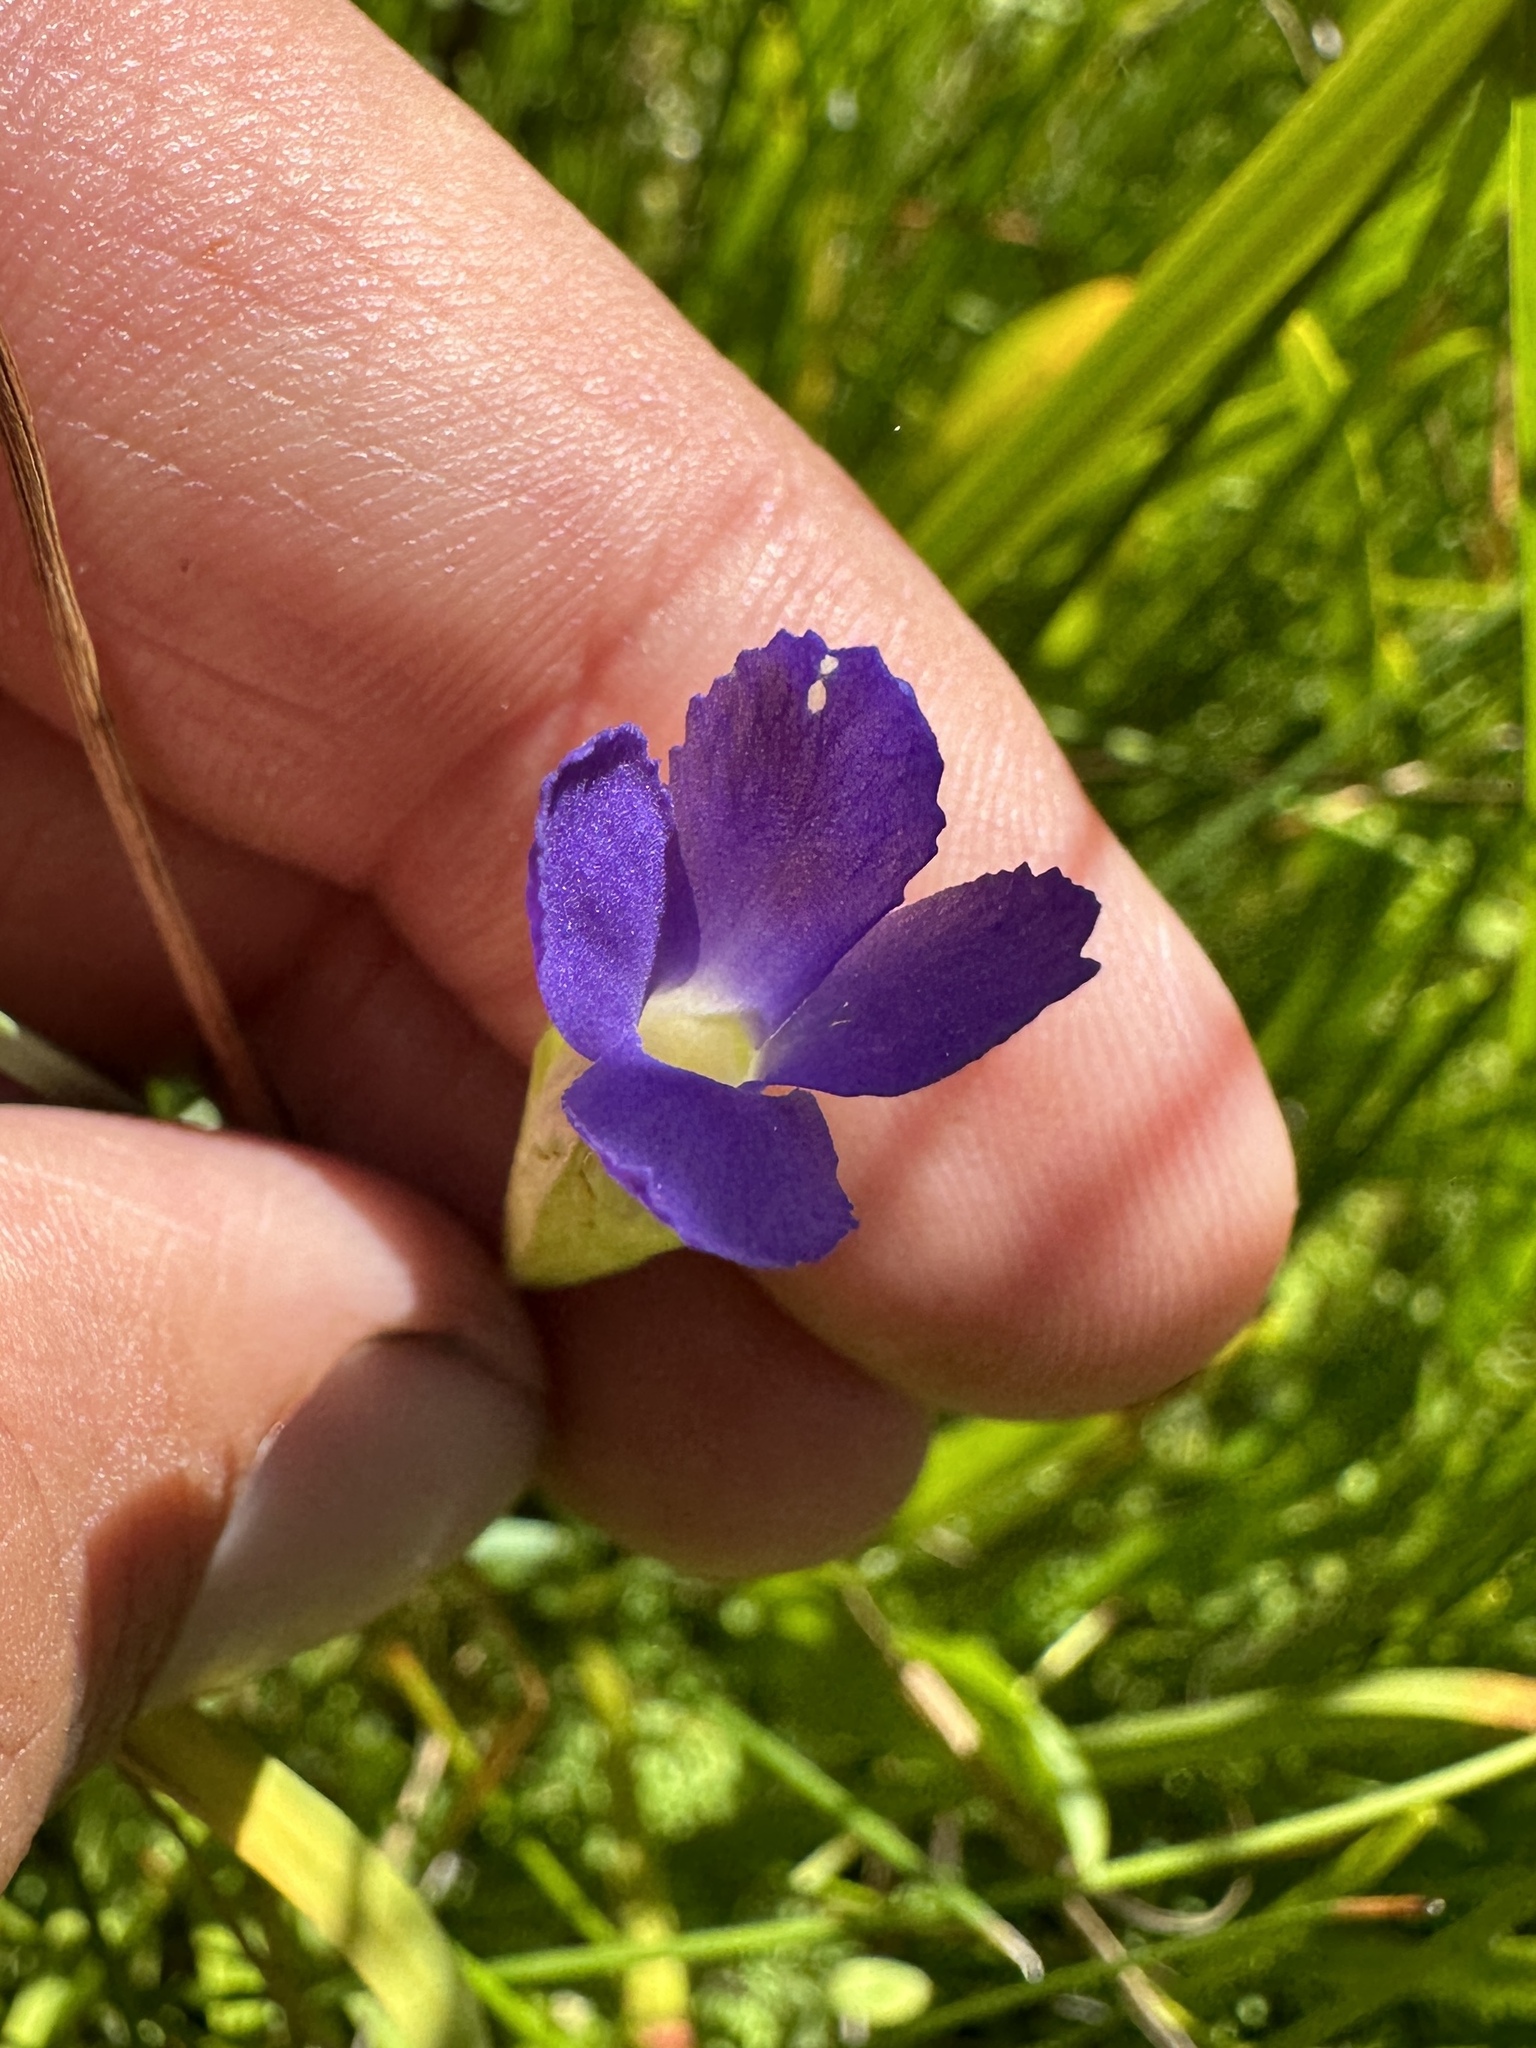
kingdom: Plantae
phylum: Tracheophyta
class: Magnoliopsida
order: Gentianales
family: Gentianaceae
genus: Gentianopsis
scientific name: Gentianopsis simplex
